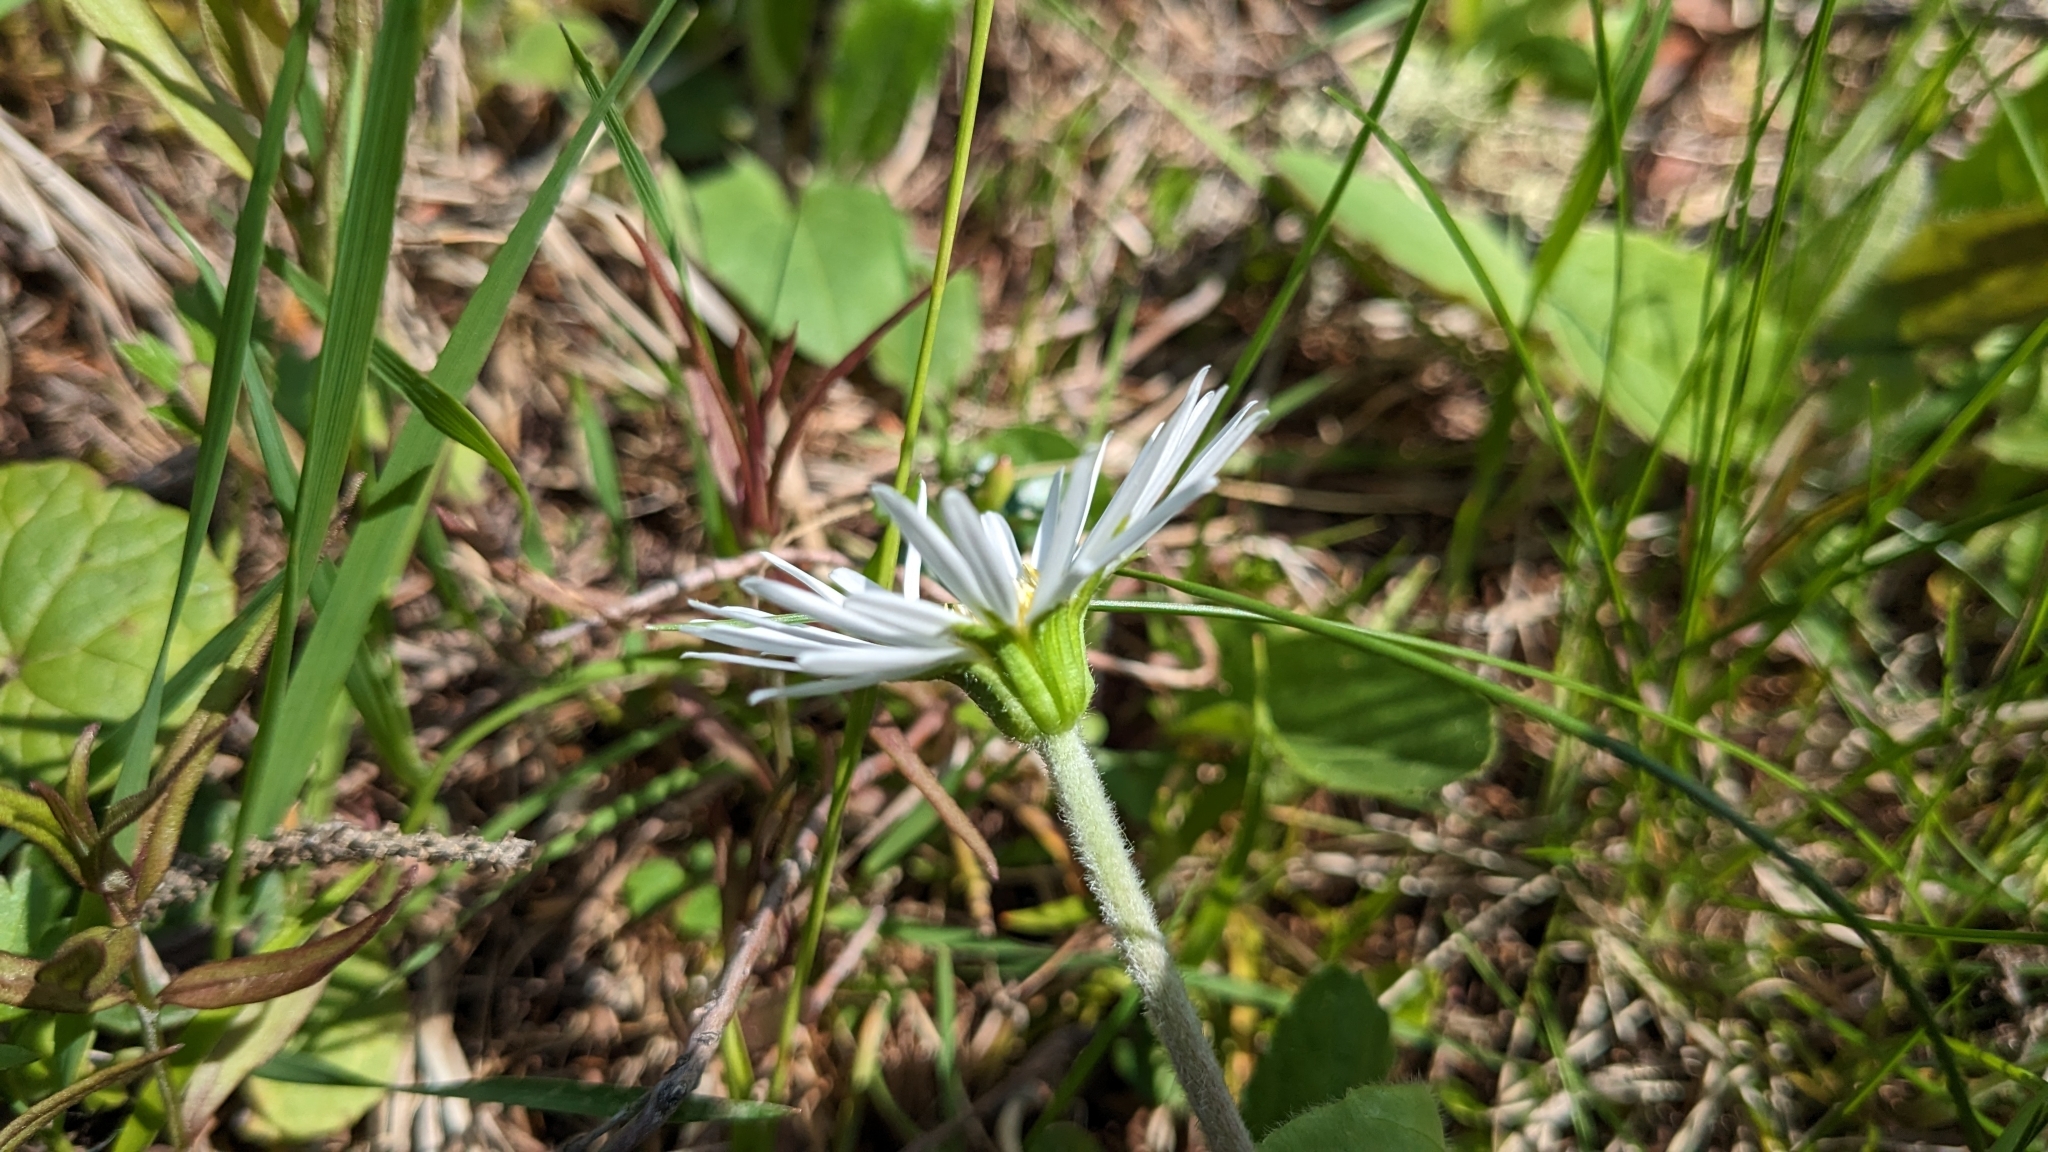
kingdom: Plantae
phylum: Tracheophyta
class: Magnoliopsida
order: Asterales
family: Asteraceae
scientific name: Asteraceae
